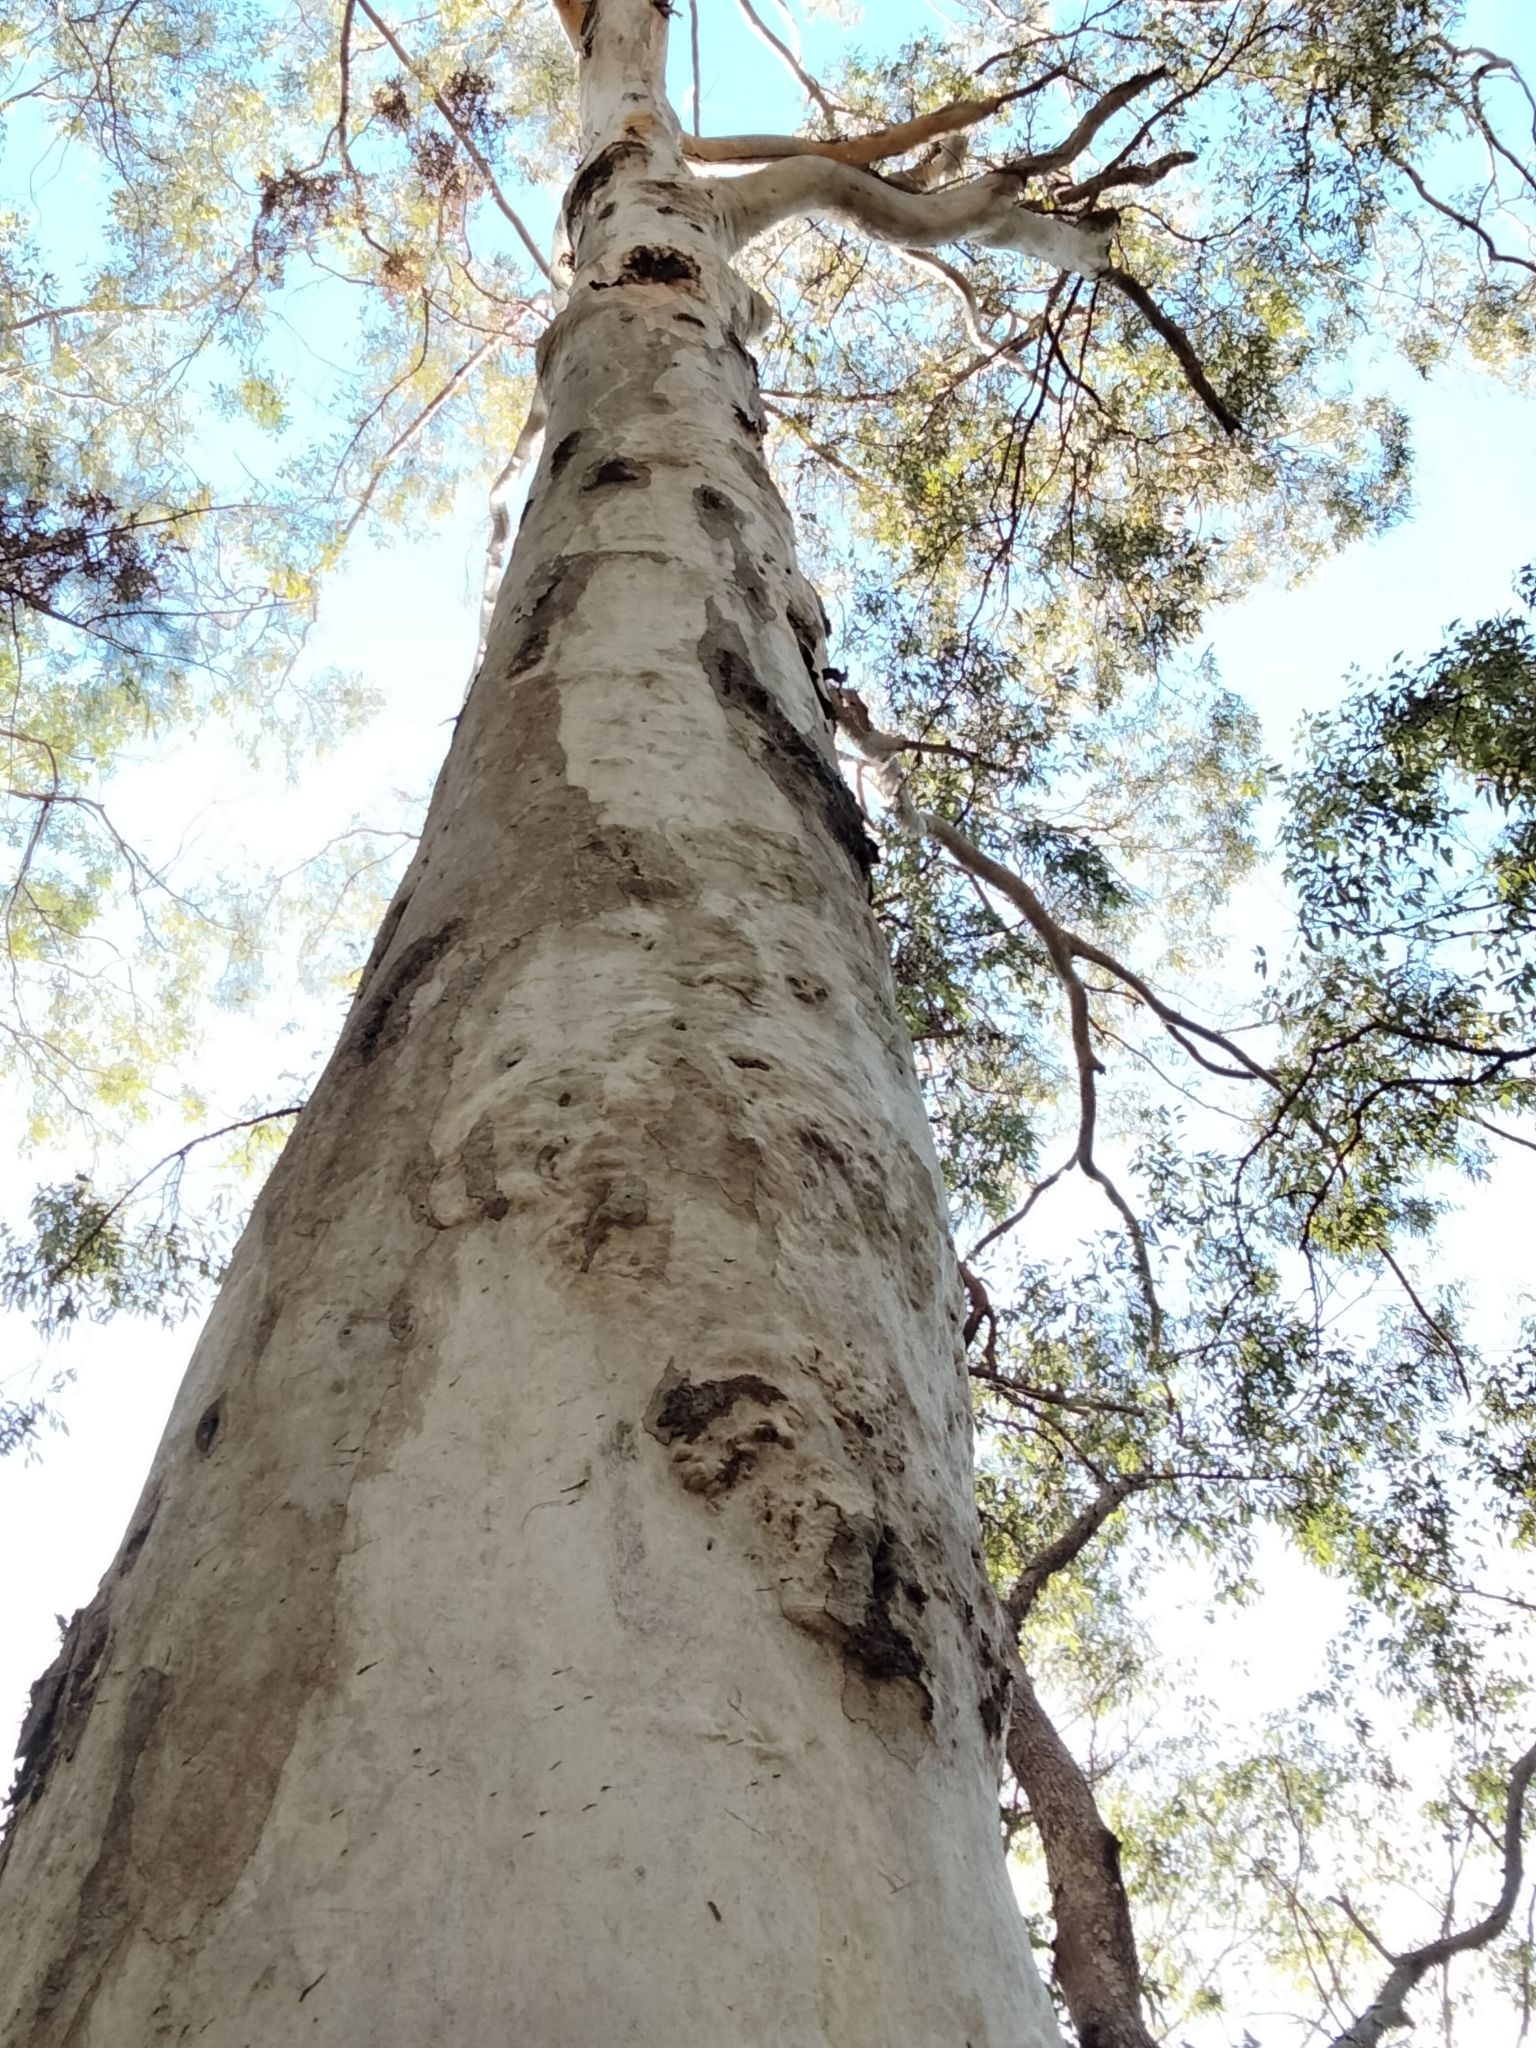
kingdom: Animalia
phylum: Chordata
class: Mammalia
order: Diprotodontia
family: Phascolarctidae
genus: Phascolarctos
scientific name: Phascolarctos cinereus
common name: Koala
